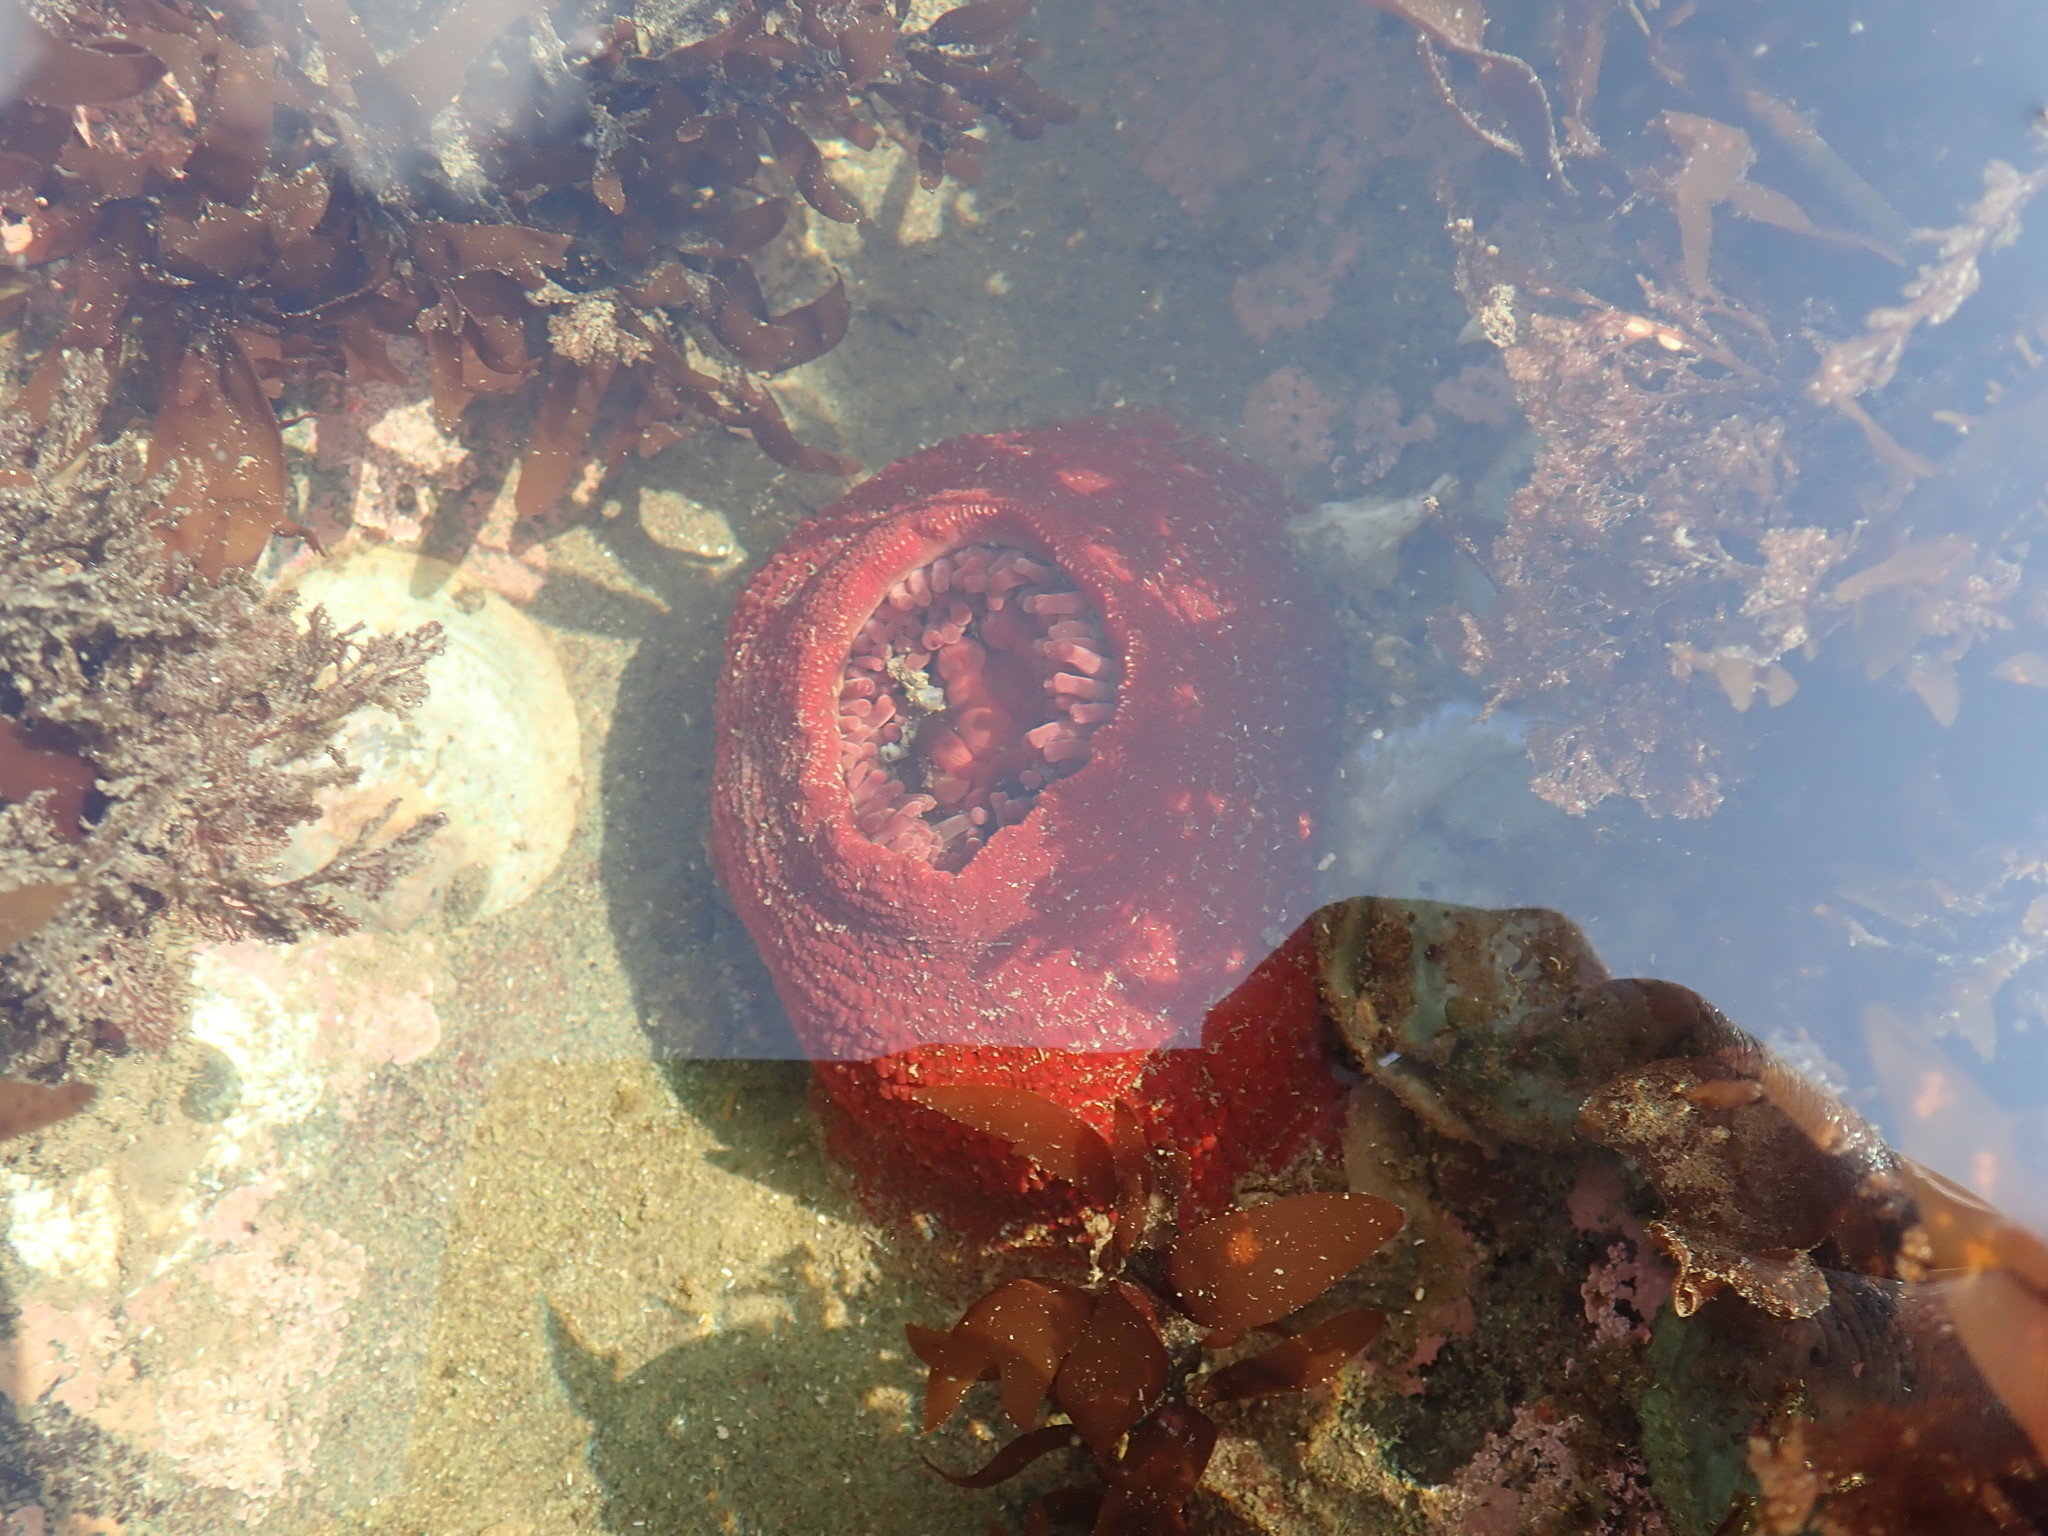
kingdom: Animalia
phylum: Cnidaria
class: Anthozoa
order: Actiniaria
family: Actiniidae
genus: Urticina
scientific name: Urticina grebelnyi
